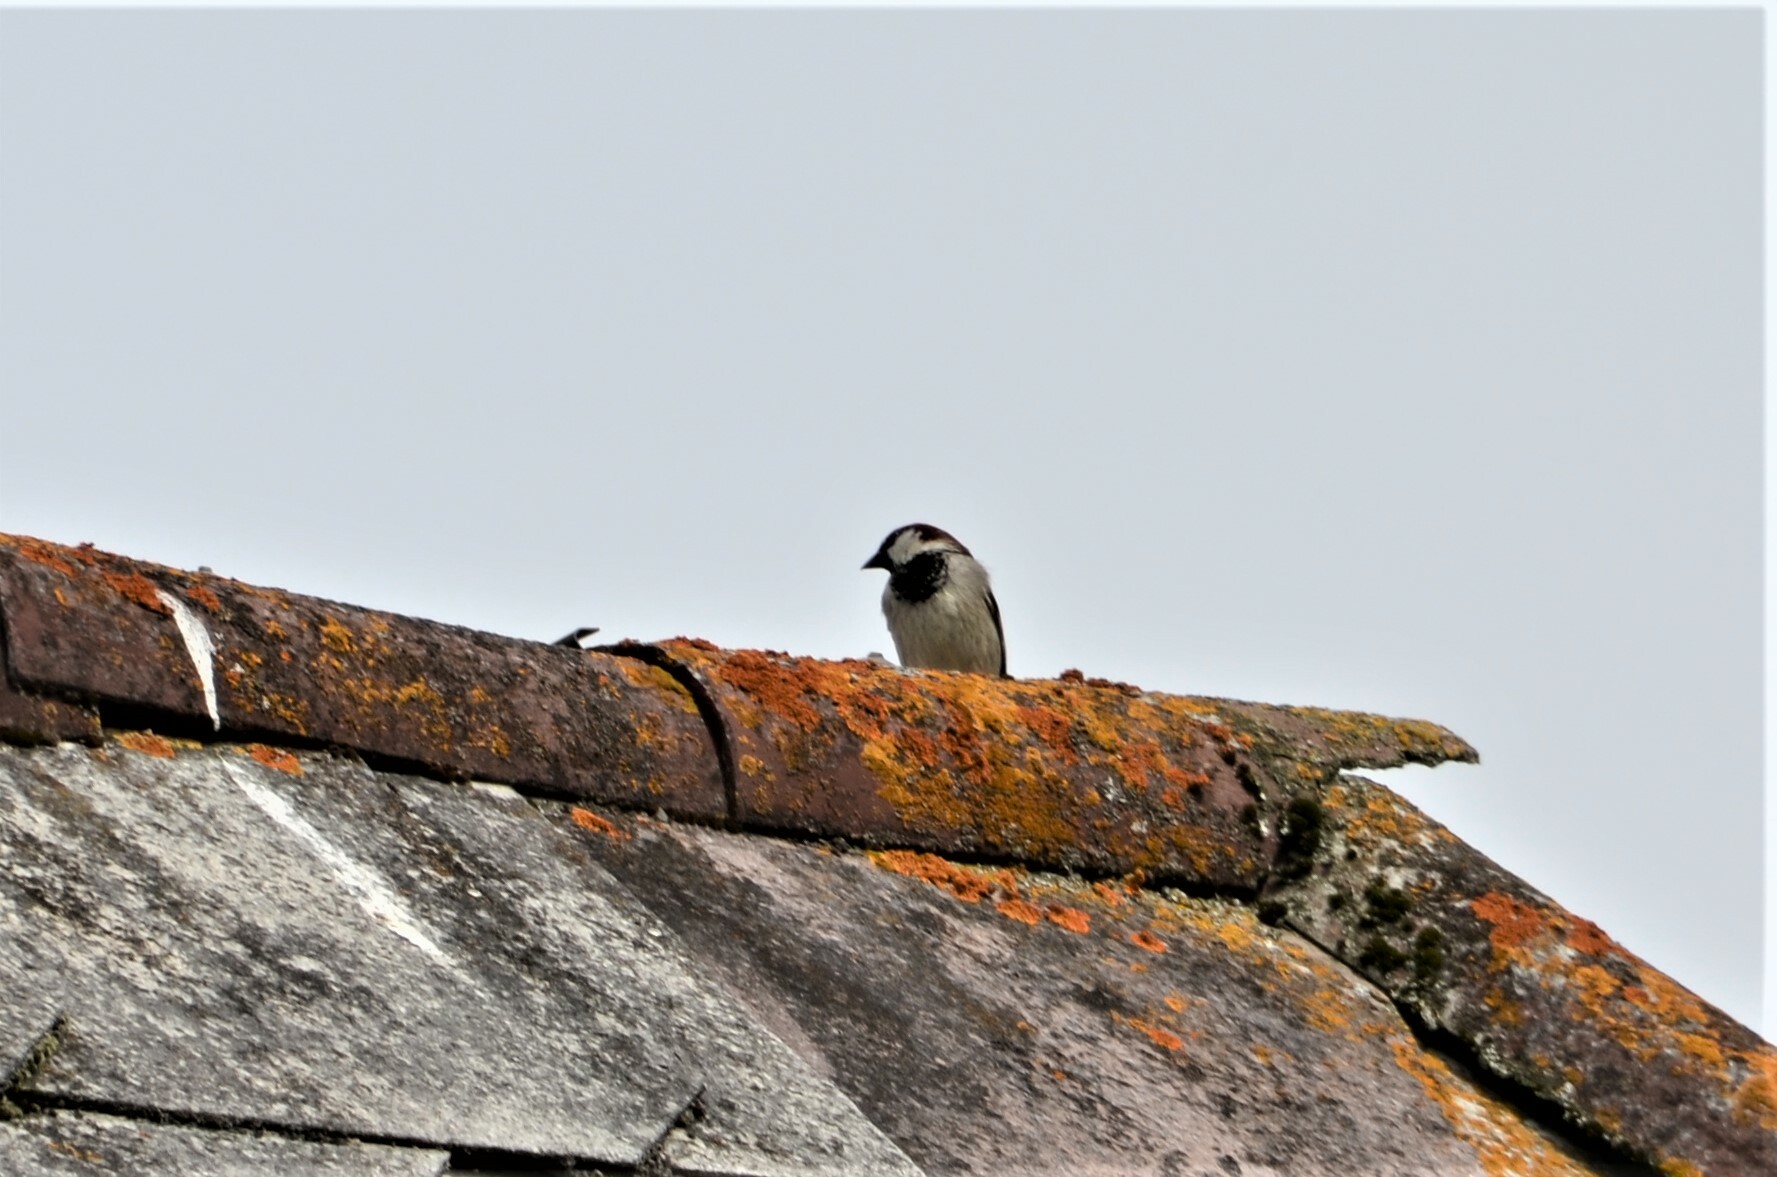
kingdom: Animalia
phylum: Chordata
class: Aves
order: Passeriformes
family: Passeridae
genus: Passer
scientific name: Passer domesticus
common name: House sparrow
